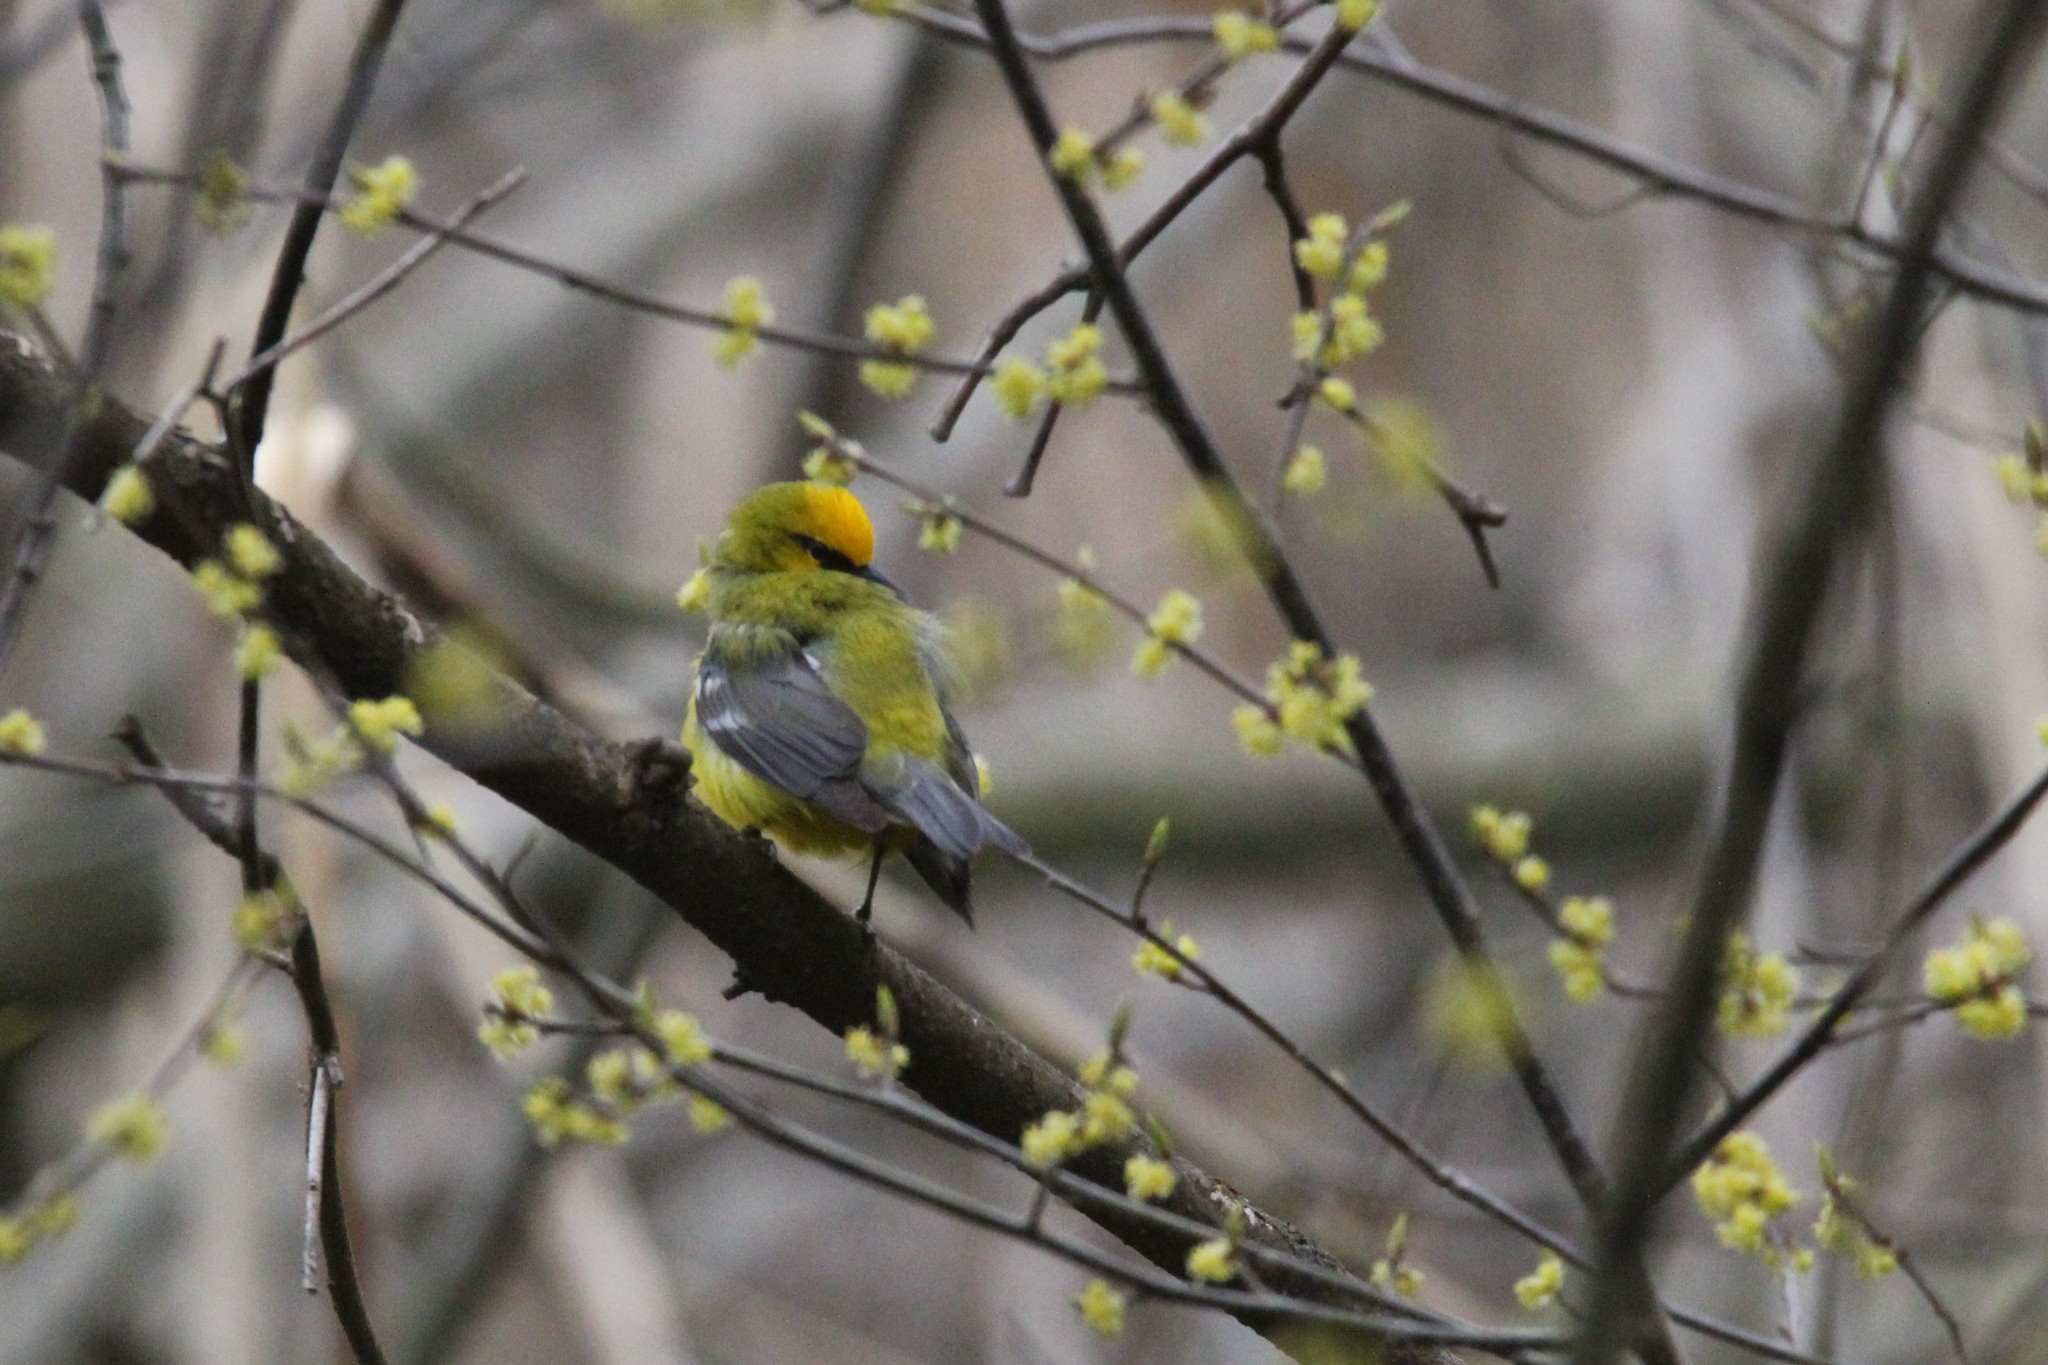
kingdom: Animalia
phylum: Chordata
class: Aves
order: Passeriformes
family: Parulidae
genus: Vermivora
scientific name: Vermivora cyanoptera
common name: Blue-winged warbler
